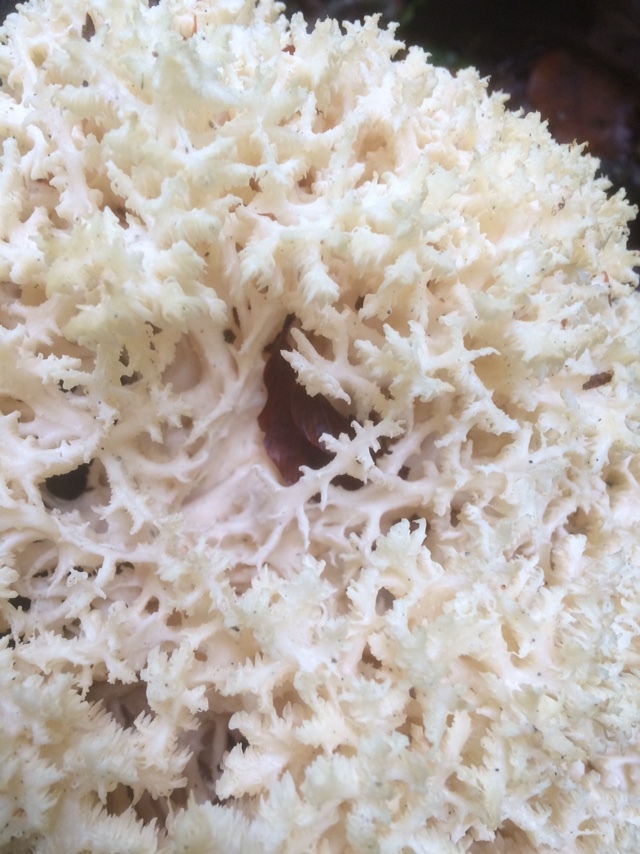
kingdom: Fungi
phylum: Basidiomycota
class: Agaricomycetes
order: Russulales
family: Hericiaceae
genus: Hericium
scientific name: Hericium coralloides
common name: Coral tooth
